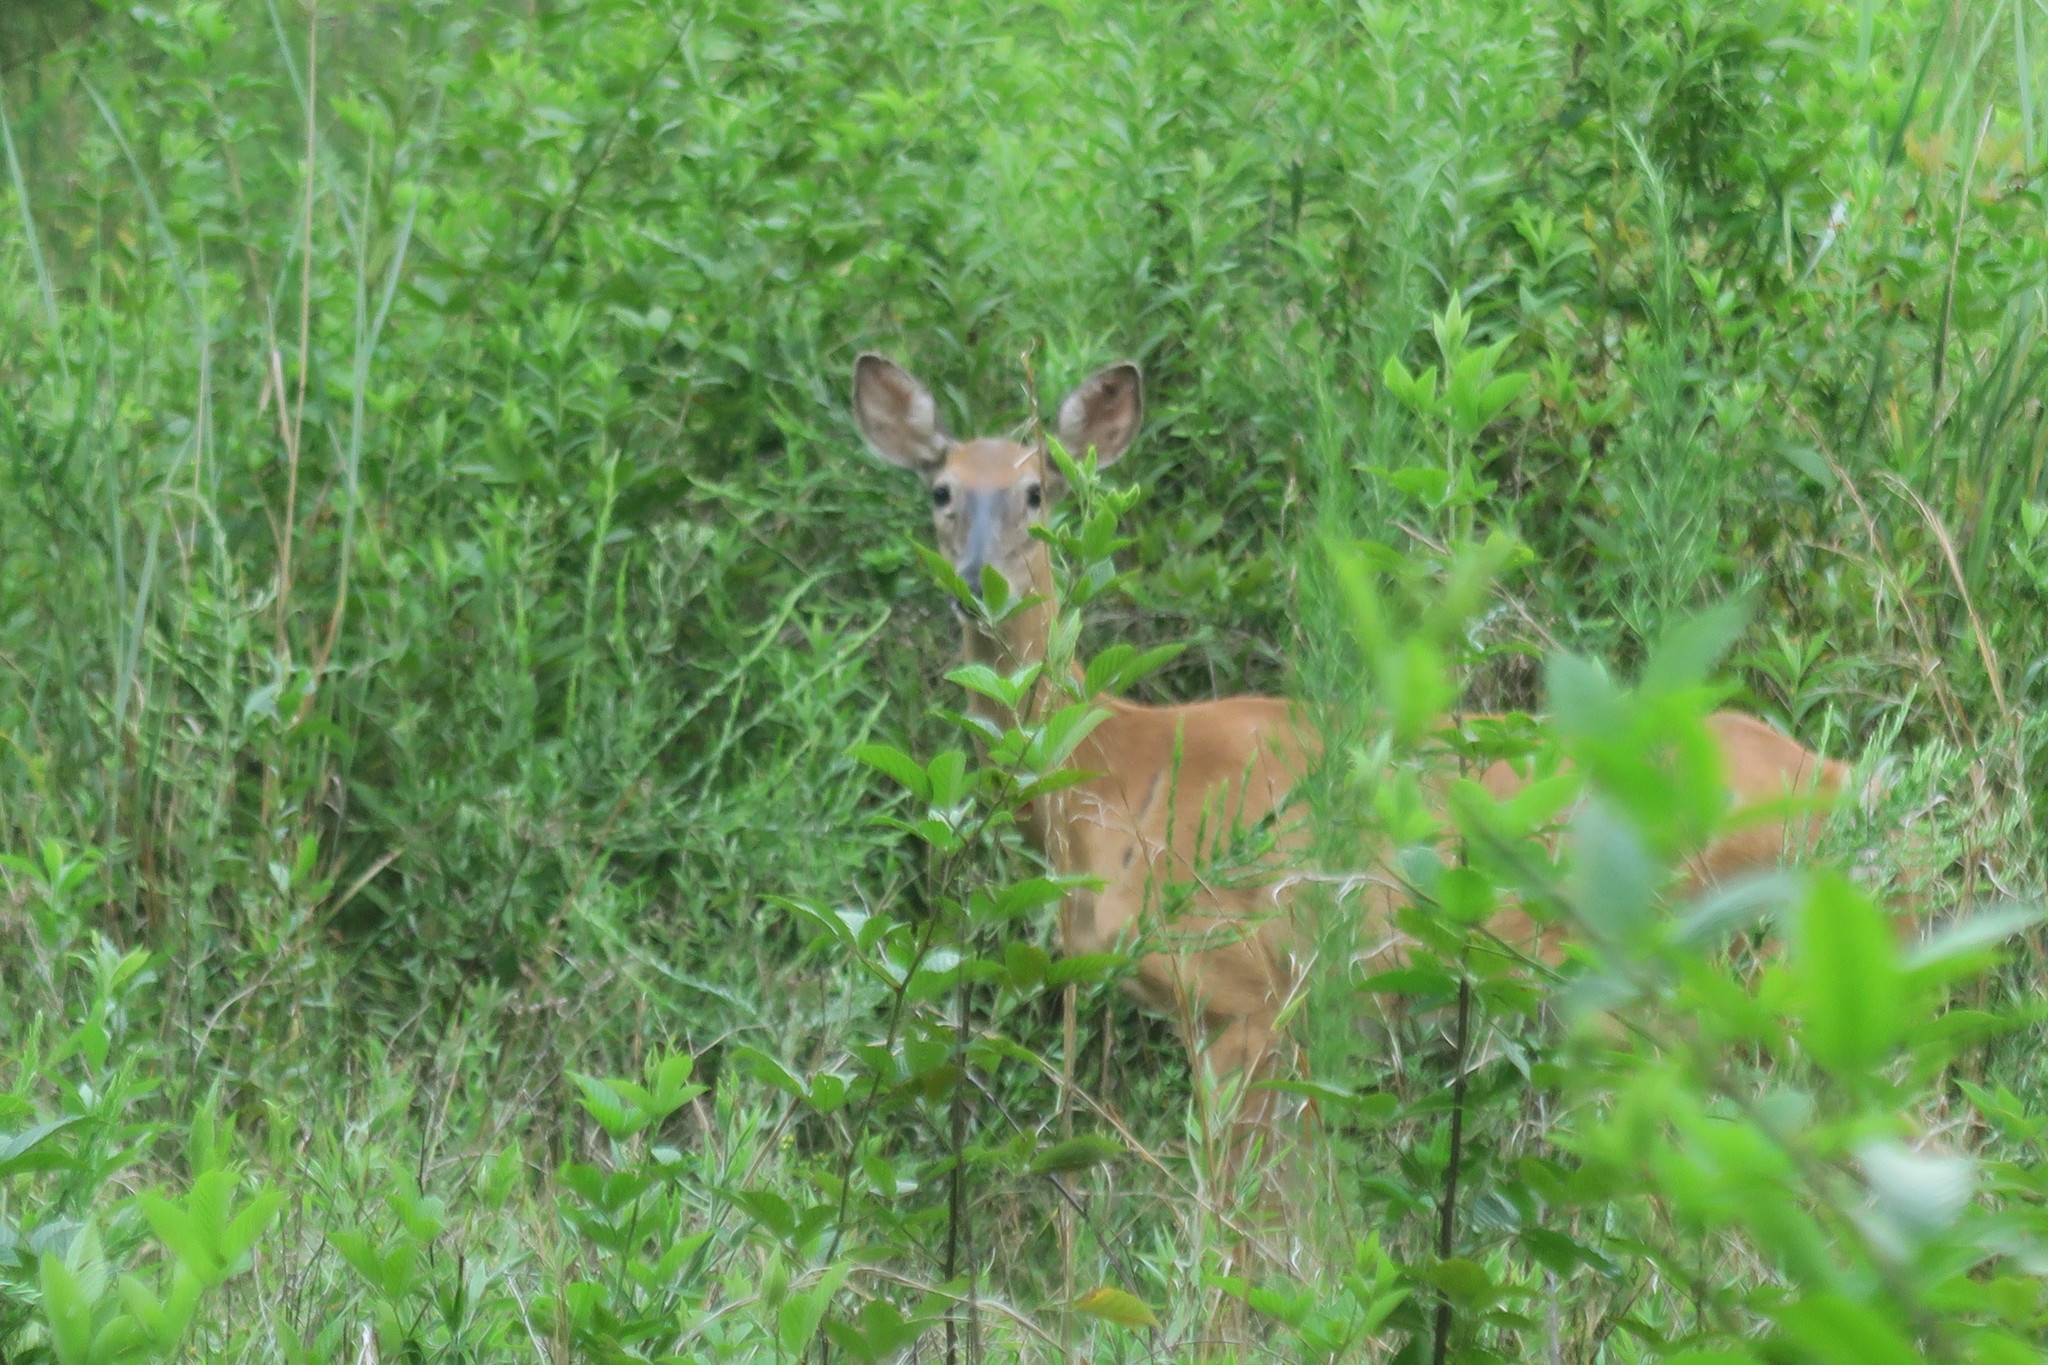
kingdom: Animalia
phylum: Chordata
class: Mammalia
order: Artiodactyla
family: Cervidae
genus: Odocoileus
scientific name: Odocoileus virginianus
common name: White-tailed deer
